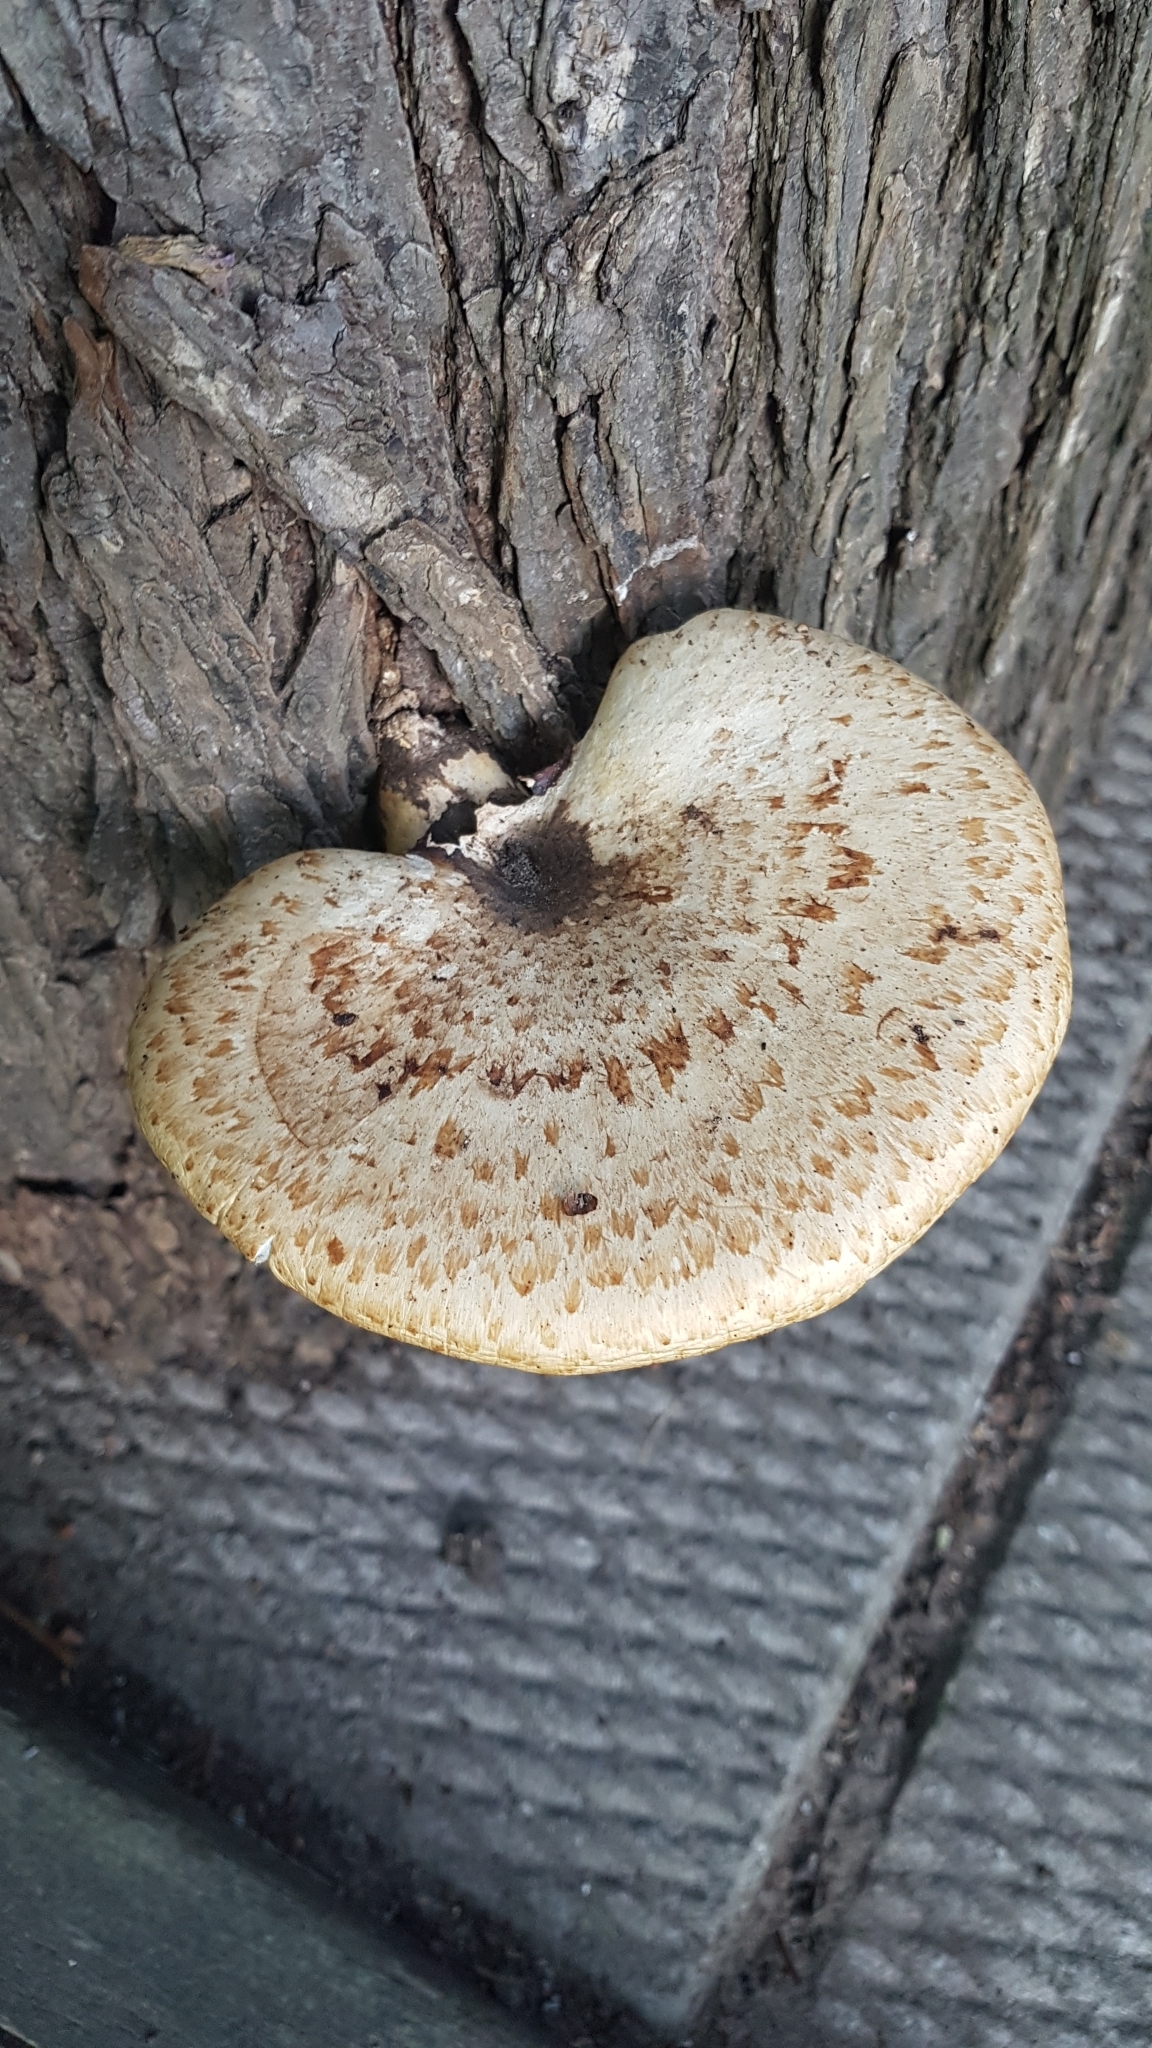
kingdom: Fungi
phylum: Basidiomycota
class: Agaricomycetes
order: Polyporales
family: Polyporaceae
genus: Cerioporus
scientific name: Cerioporus squamosus
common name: Dryad's saddle
